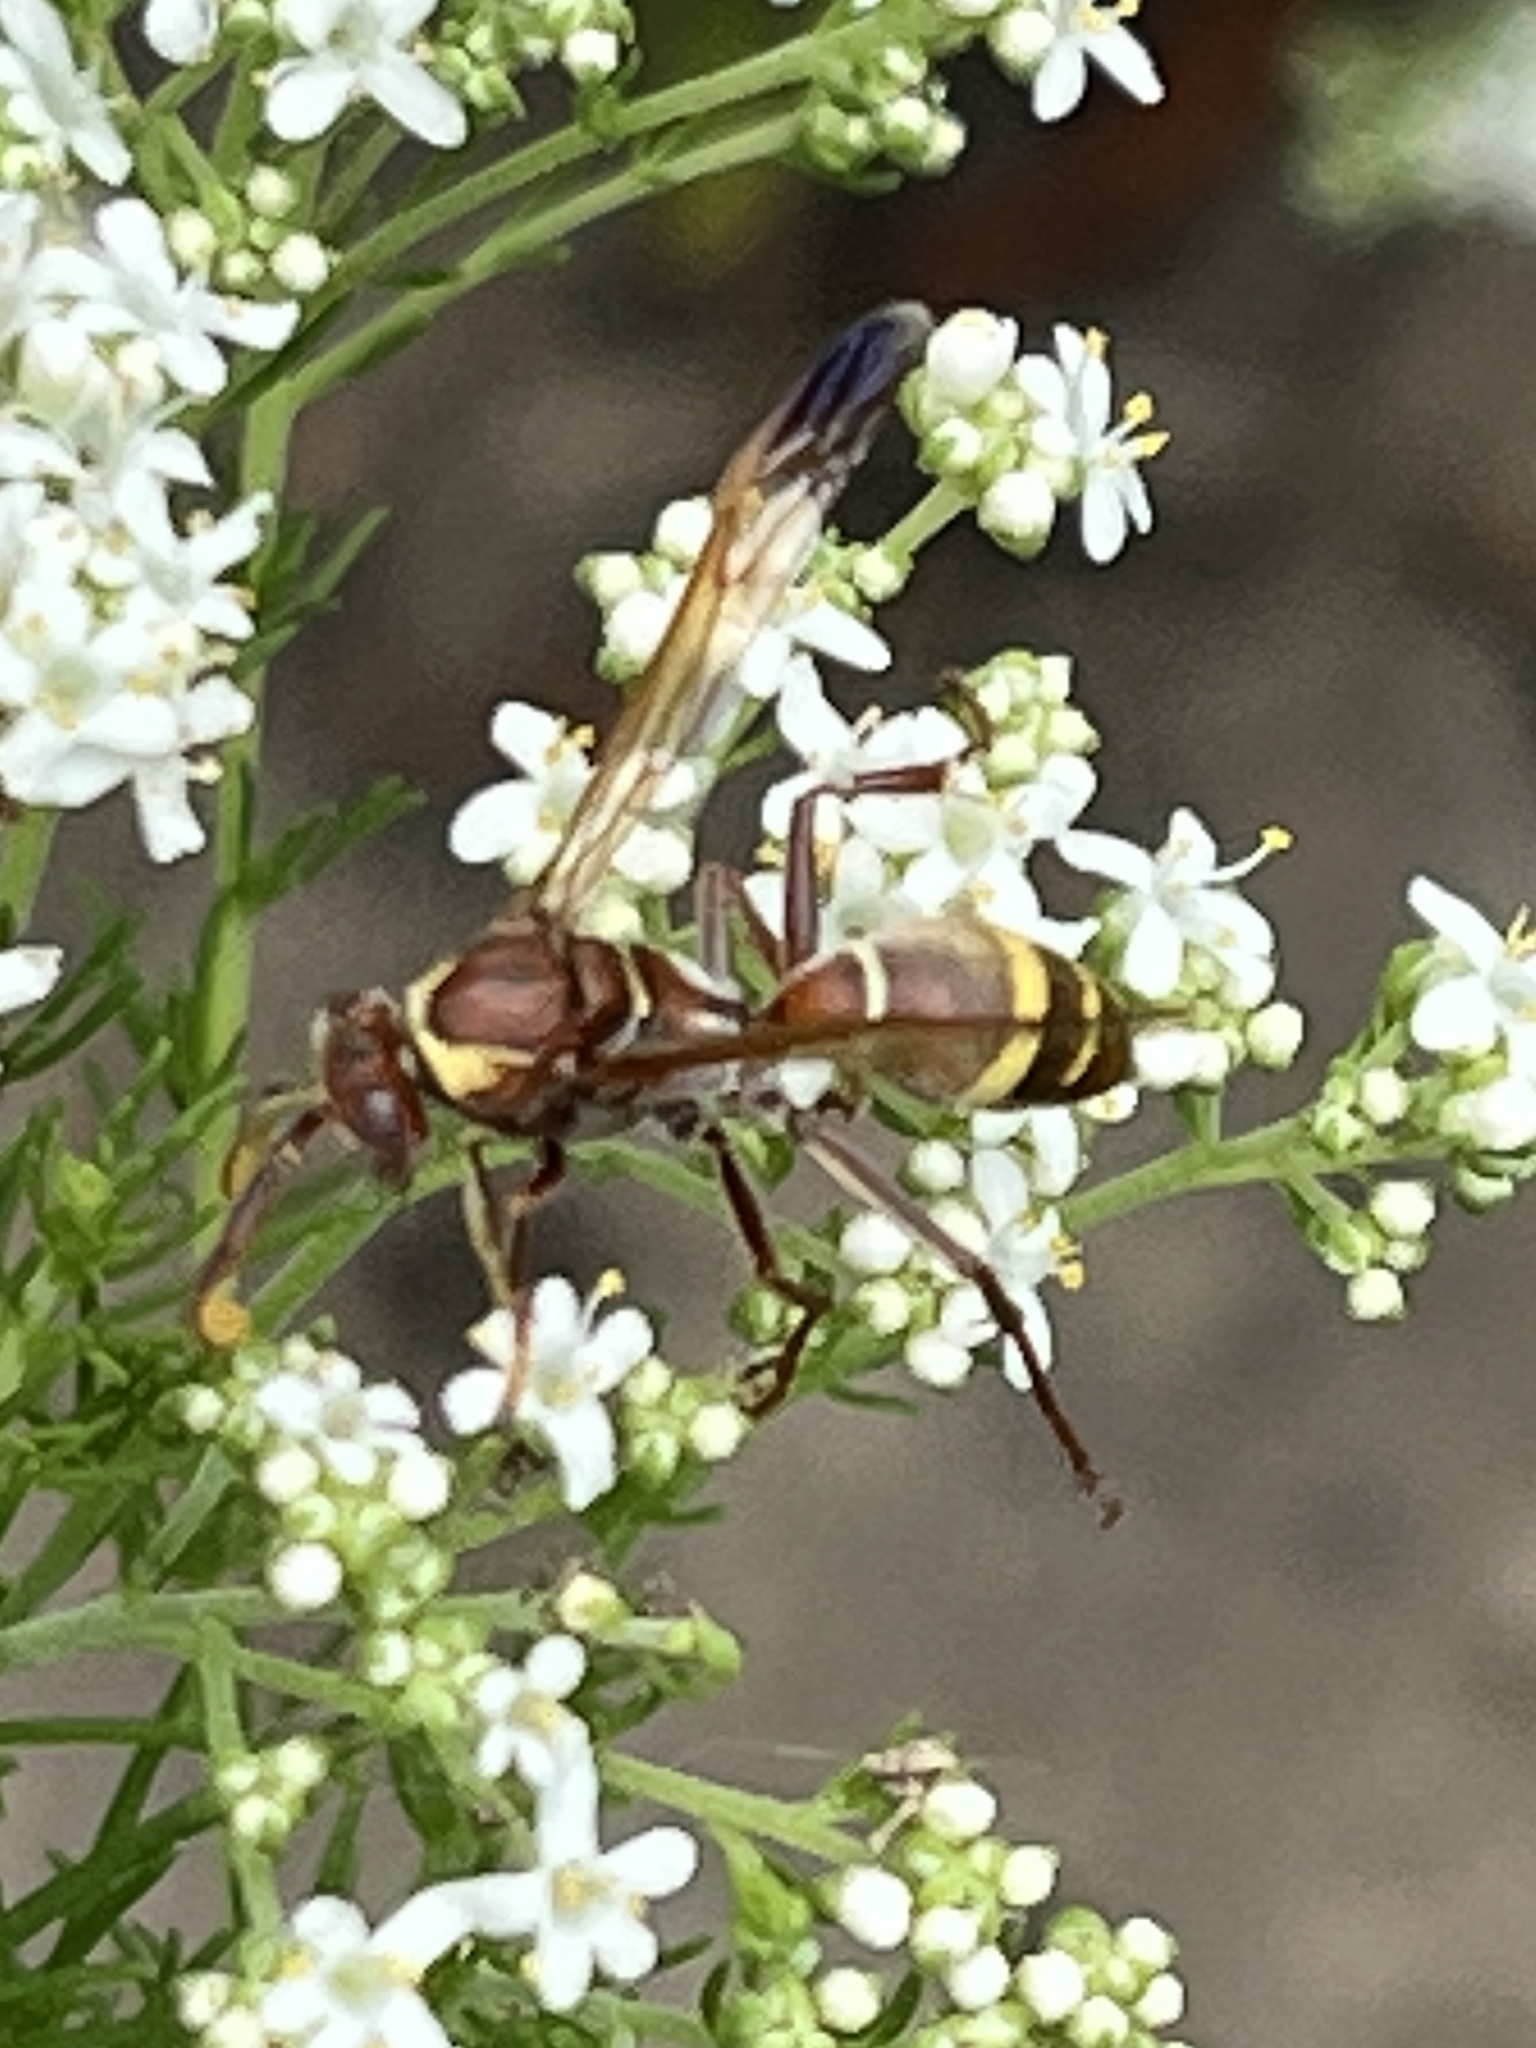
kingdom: Animalia
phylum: Arthropoda
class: Insecta
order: Hymenoptera
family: Eumenidae
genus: Polistes
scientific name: Polistes badius
